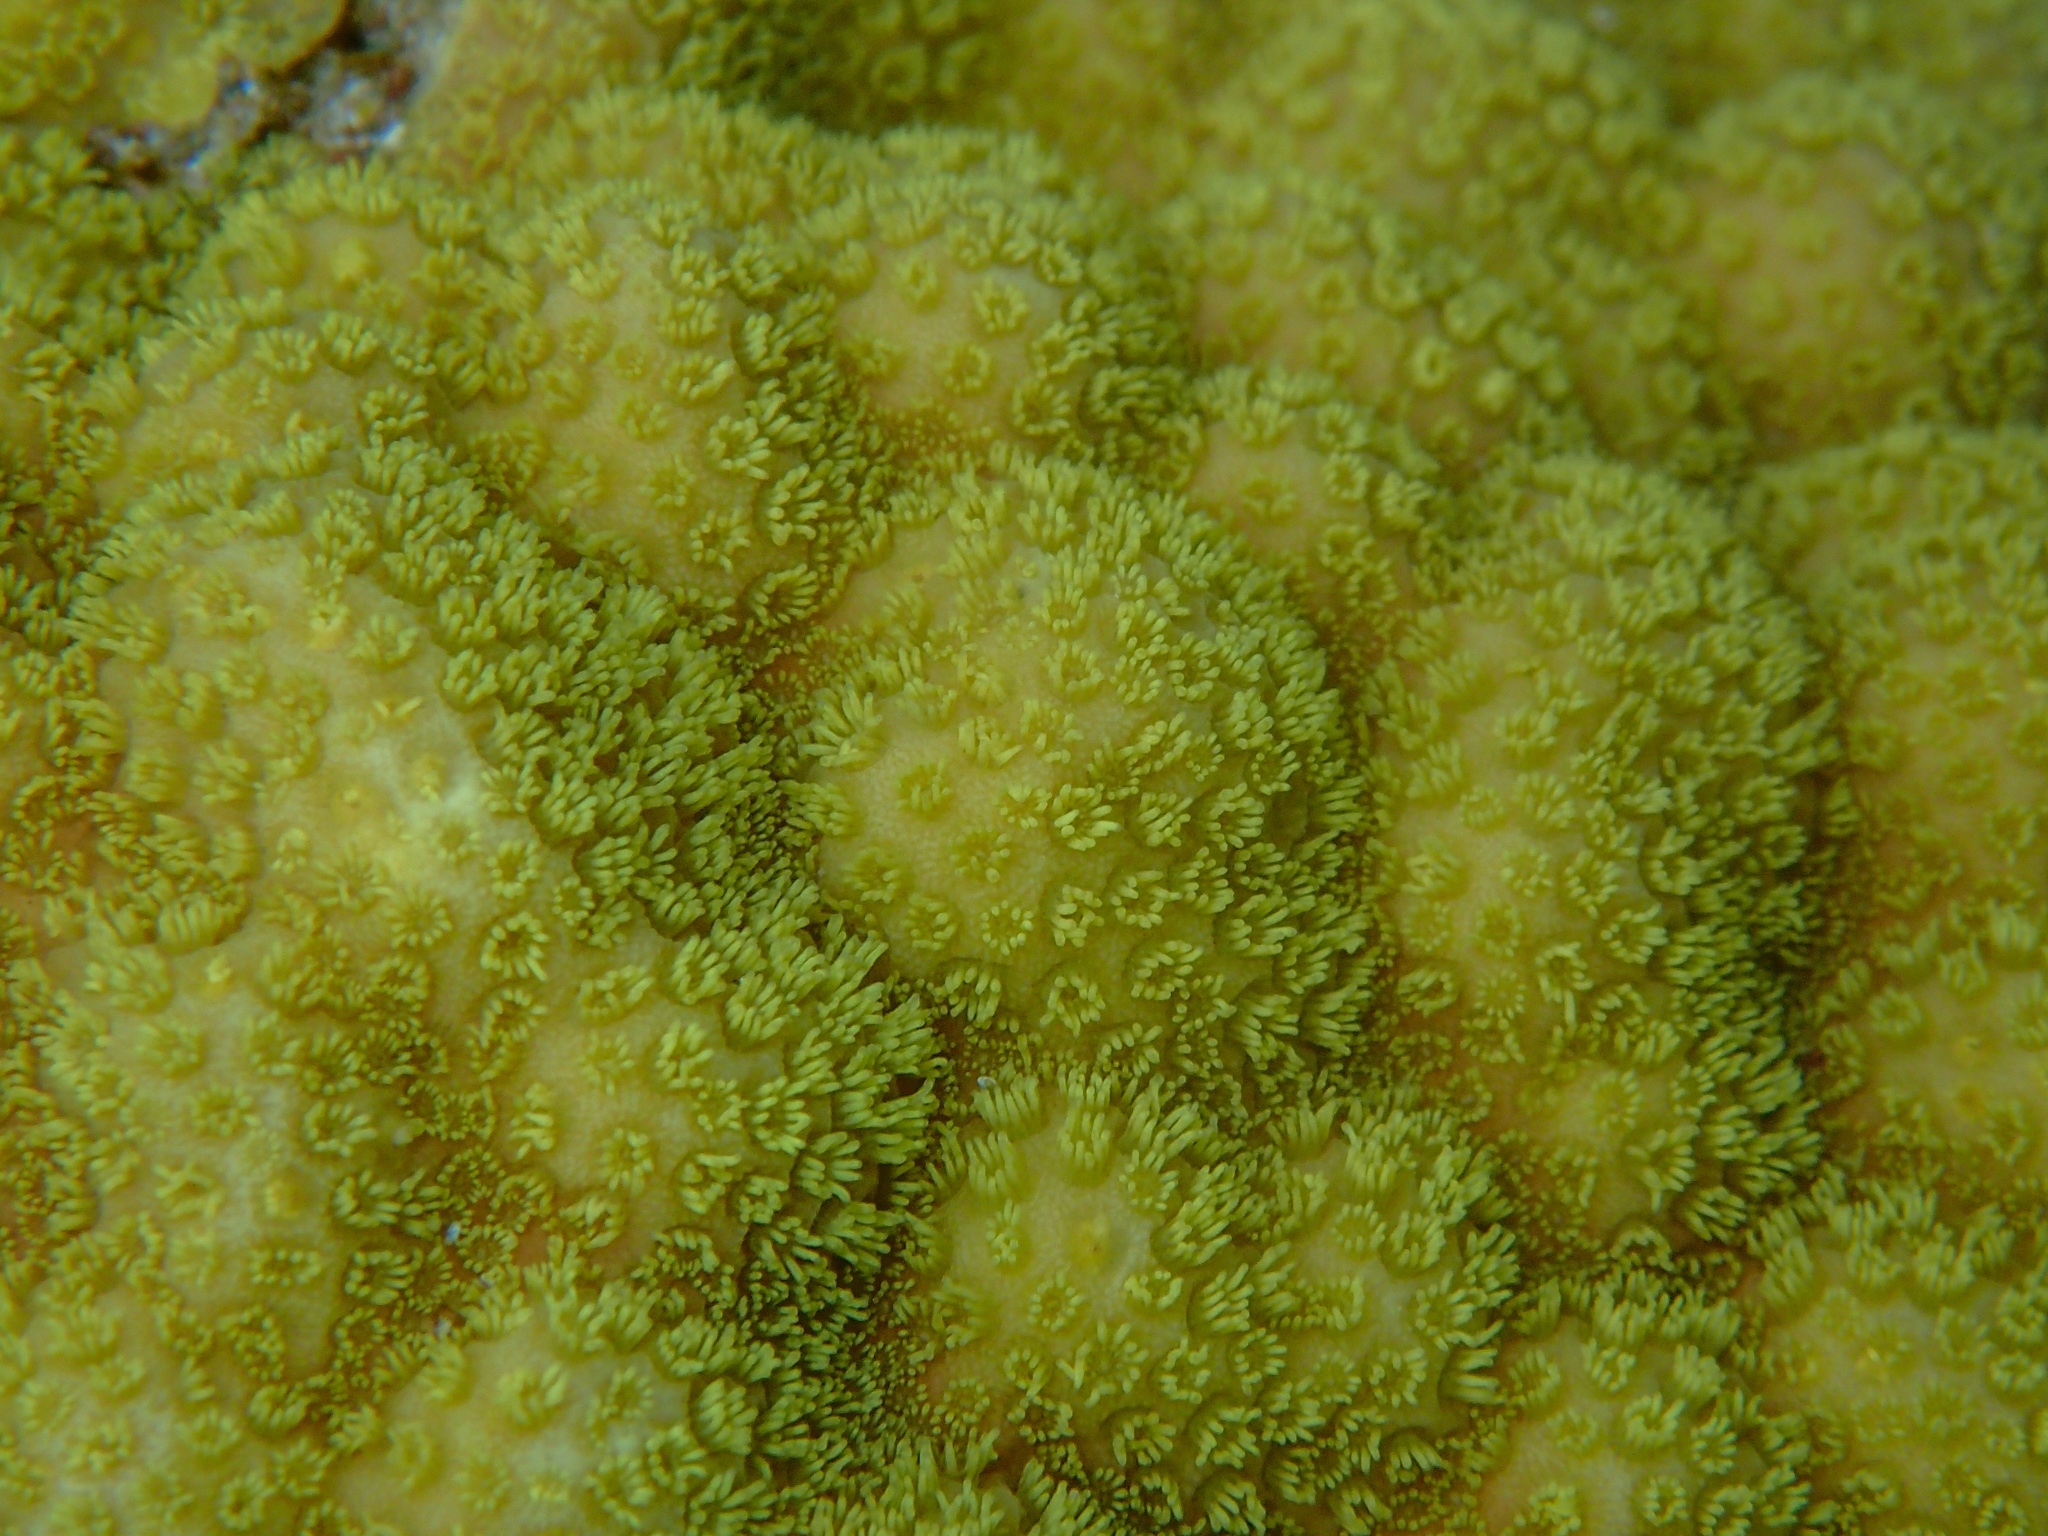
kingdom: Animalia
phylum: Cnidaria
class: Anthozoa
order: Scleractinia
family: Poritidae
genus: Porites
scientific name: Porites astreoides
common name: Mustard hill coral
